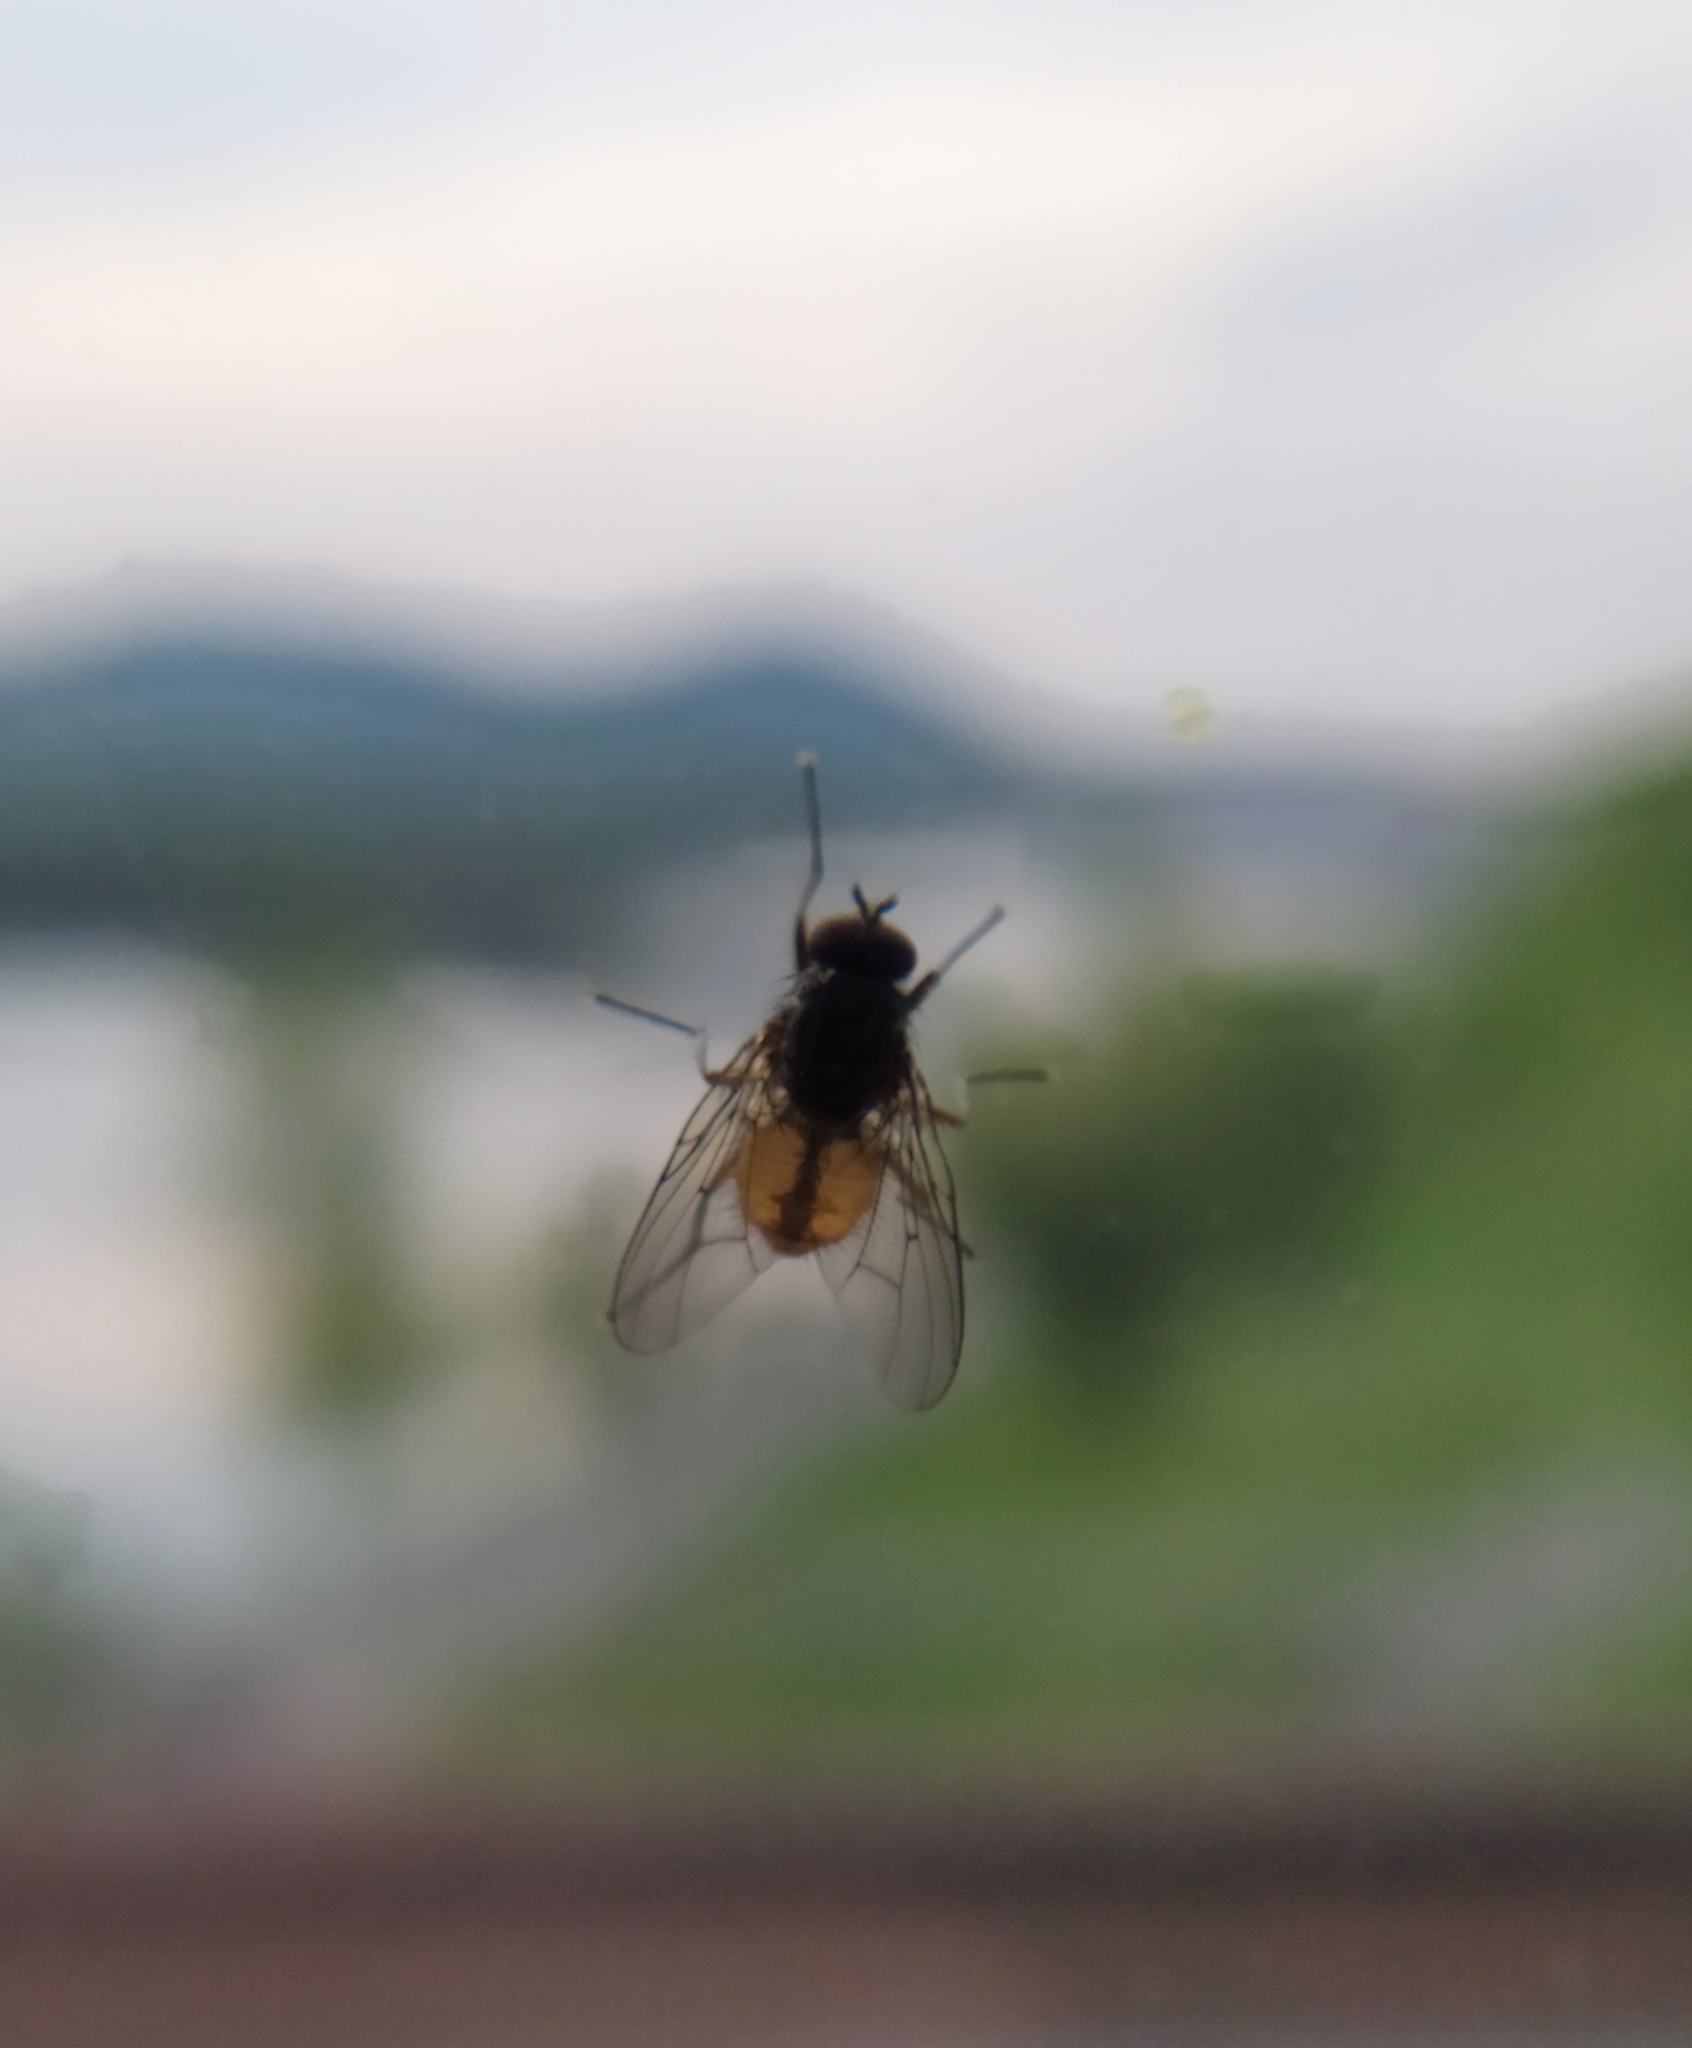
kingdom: Animalia
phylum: Arthropoda
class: Insecta
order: Diptera
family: Muscidae
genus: Phaonia
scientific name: Phaonia subventa
